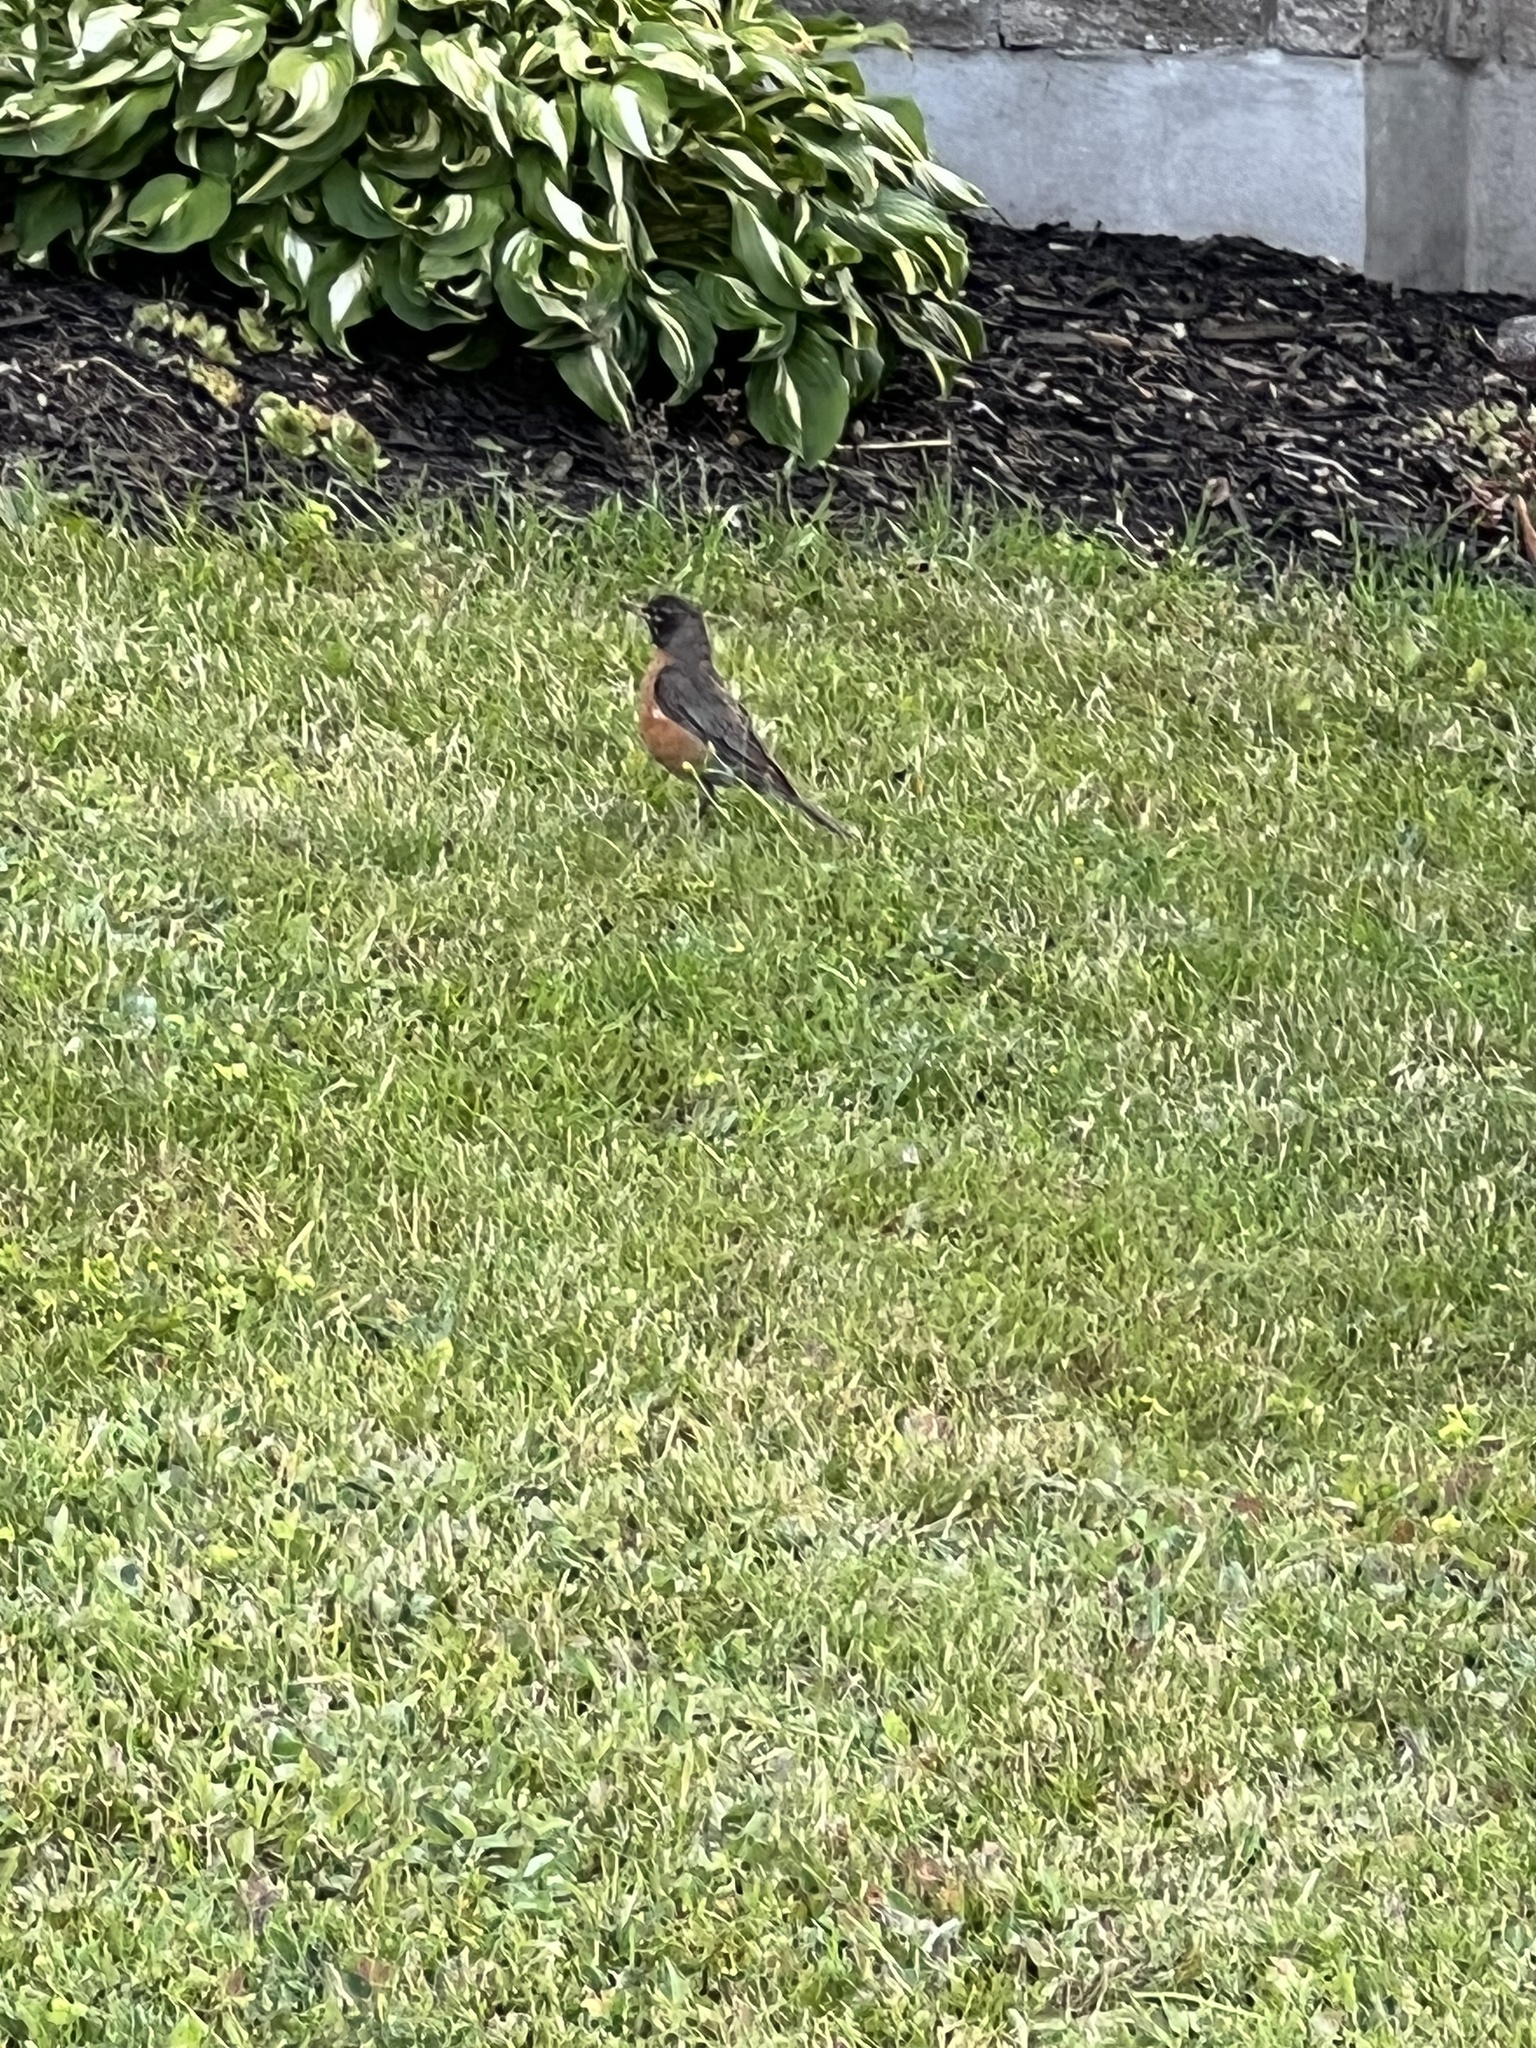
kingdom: Animalia
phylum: Chordata
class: Aves
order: Passeriformes
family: Turdidae
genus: Turdus
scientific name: Turdus migratorius
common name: American robin
